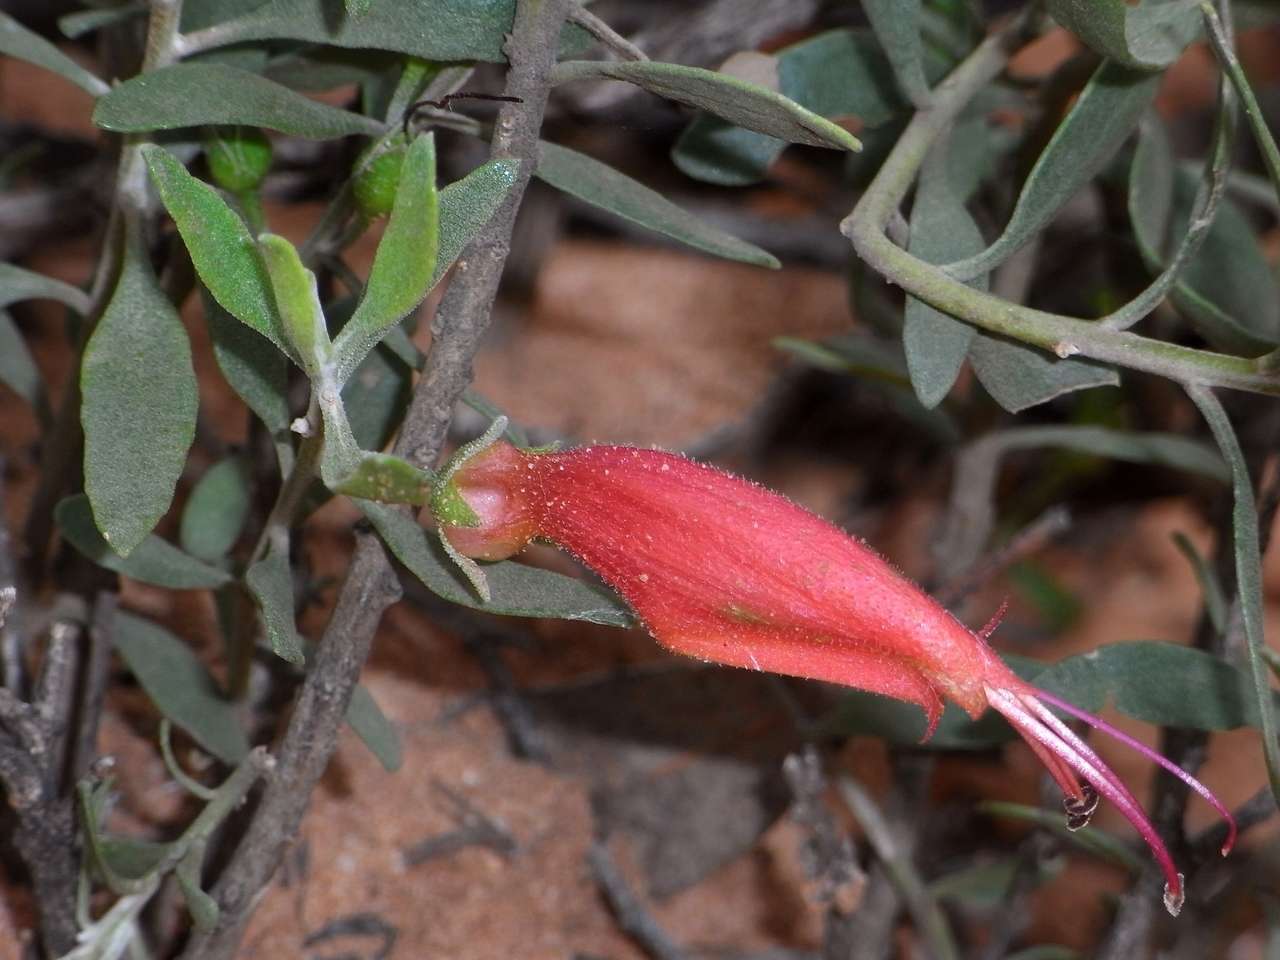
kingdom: Plantae
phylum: Tracheophyta
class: Magnoliopsida
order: Lamiales
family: Scrophulariaceae
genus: Eremophila
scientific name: Eremophila glabra
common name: Black-fuchsia
